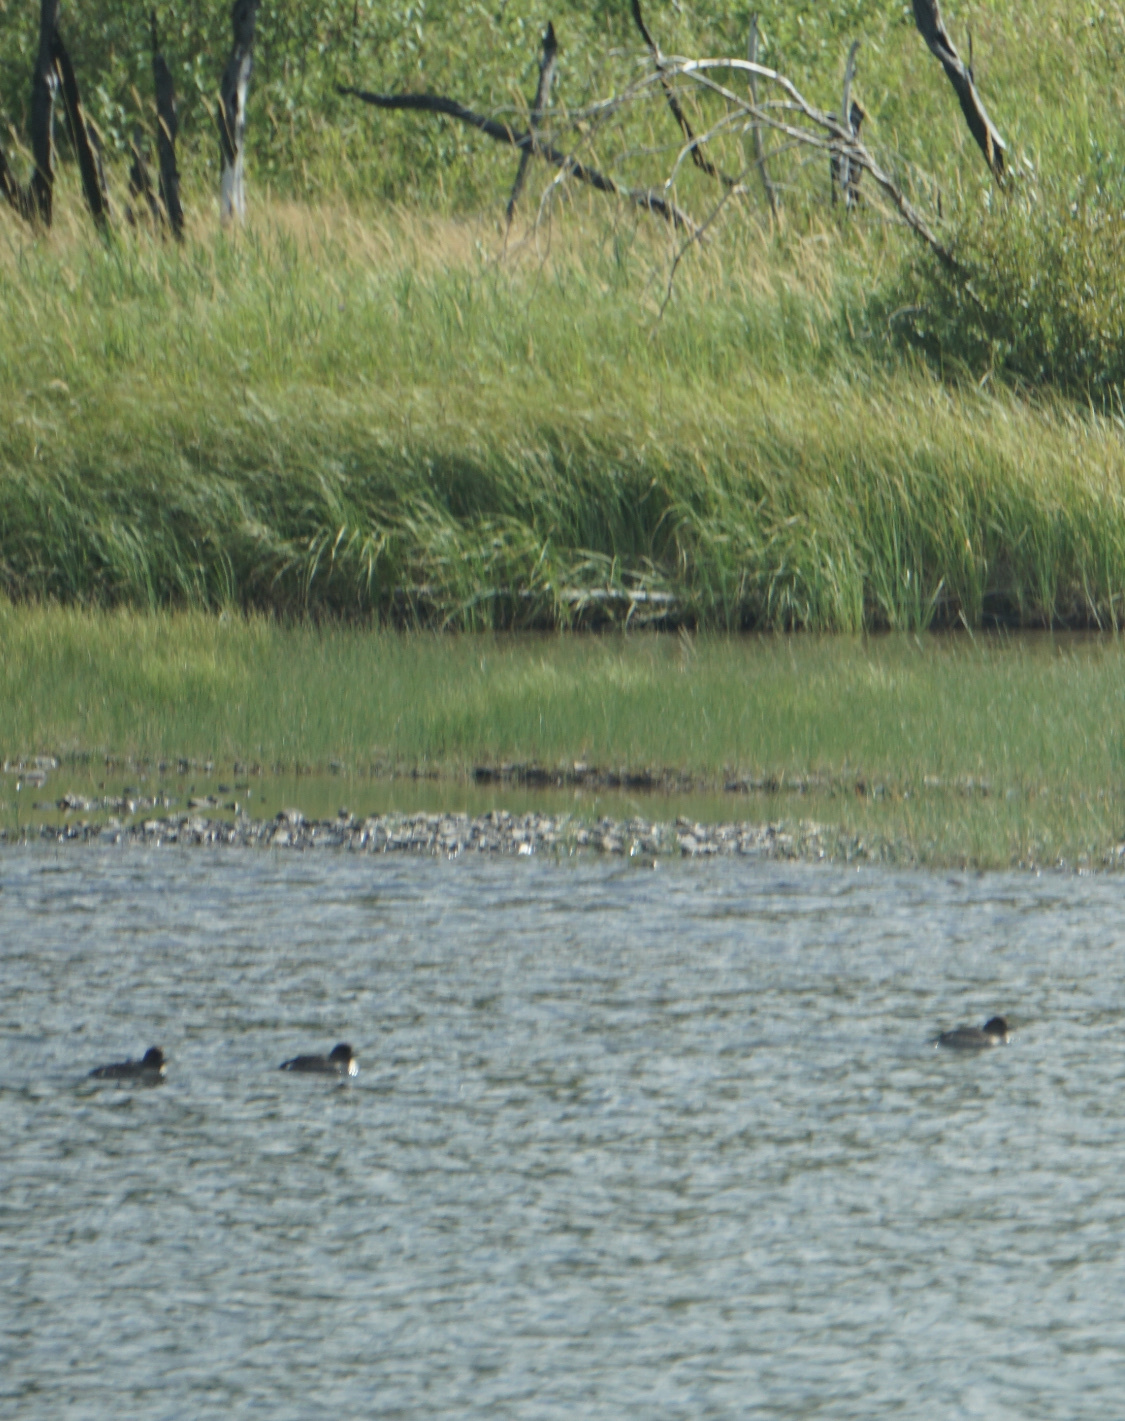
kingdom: Animalia
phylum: Chordata
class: Aves
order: Anseriformes
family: Anatidae
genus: Bucephala
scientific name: Bucephala islandica
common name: Barrow's goldeneye
